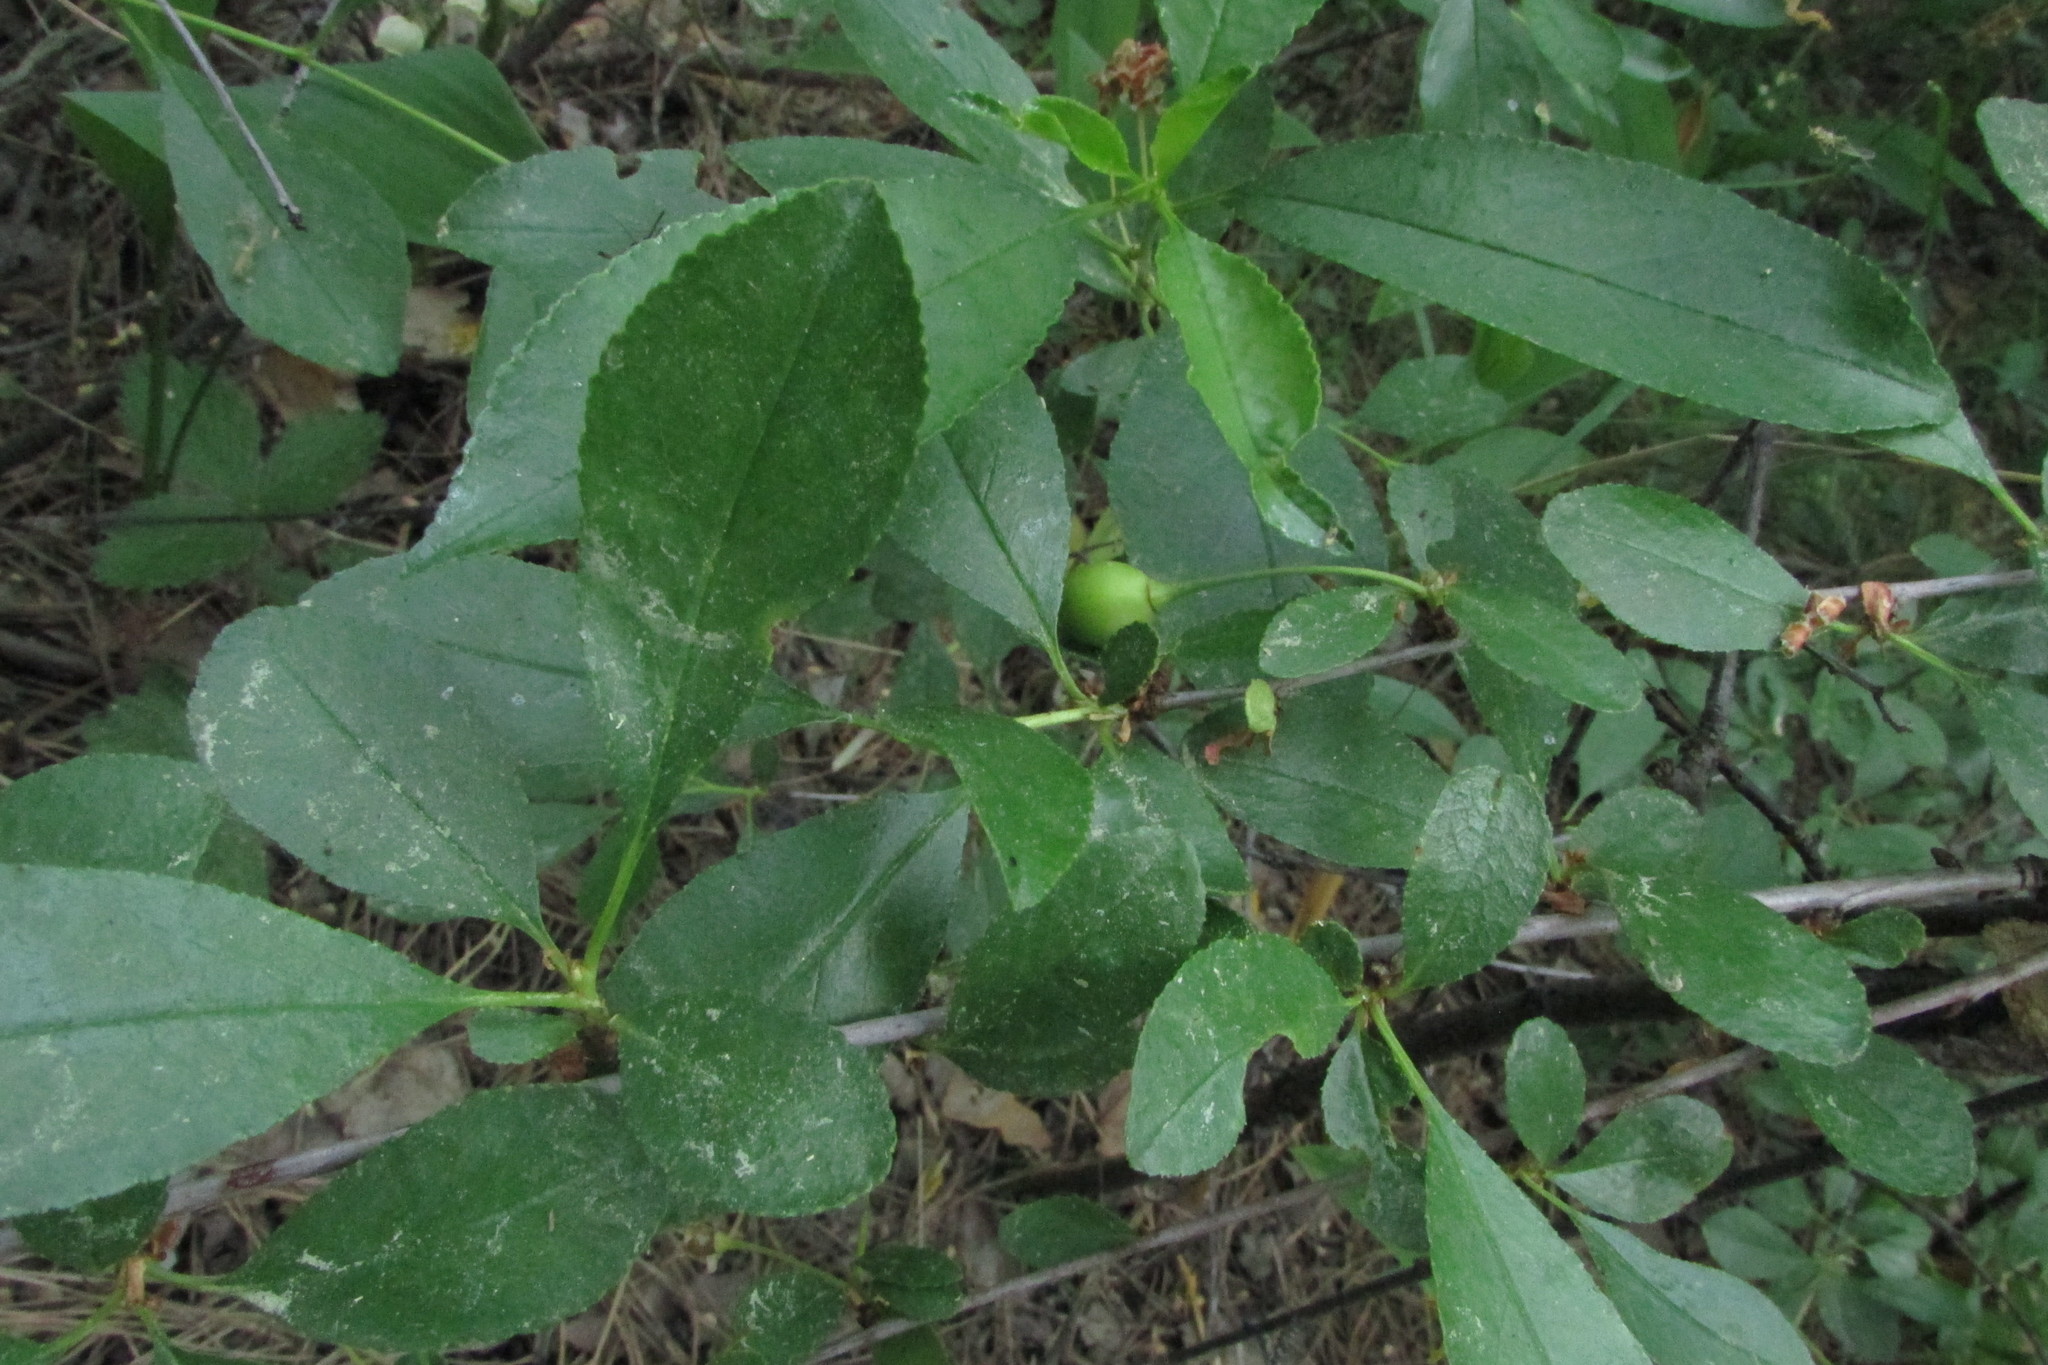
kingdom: Plantae
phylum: Tracheophyta
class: Magnoliopsida
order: Rosales
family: Rosaceae
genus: Prunus
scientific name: Prunus fruticosa
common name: European dwarf cherry
